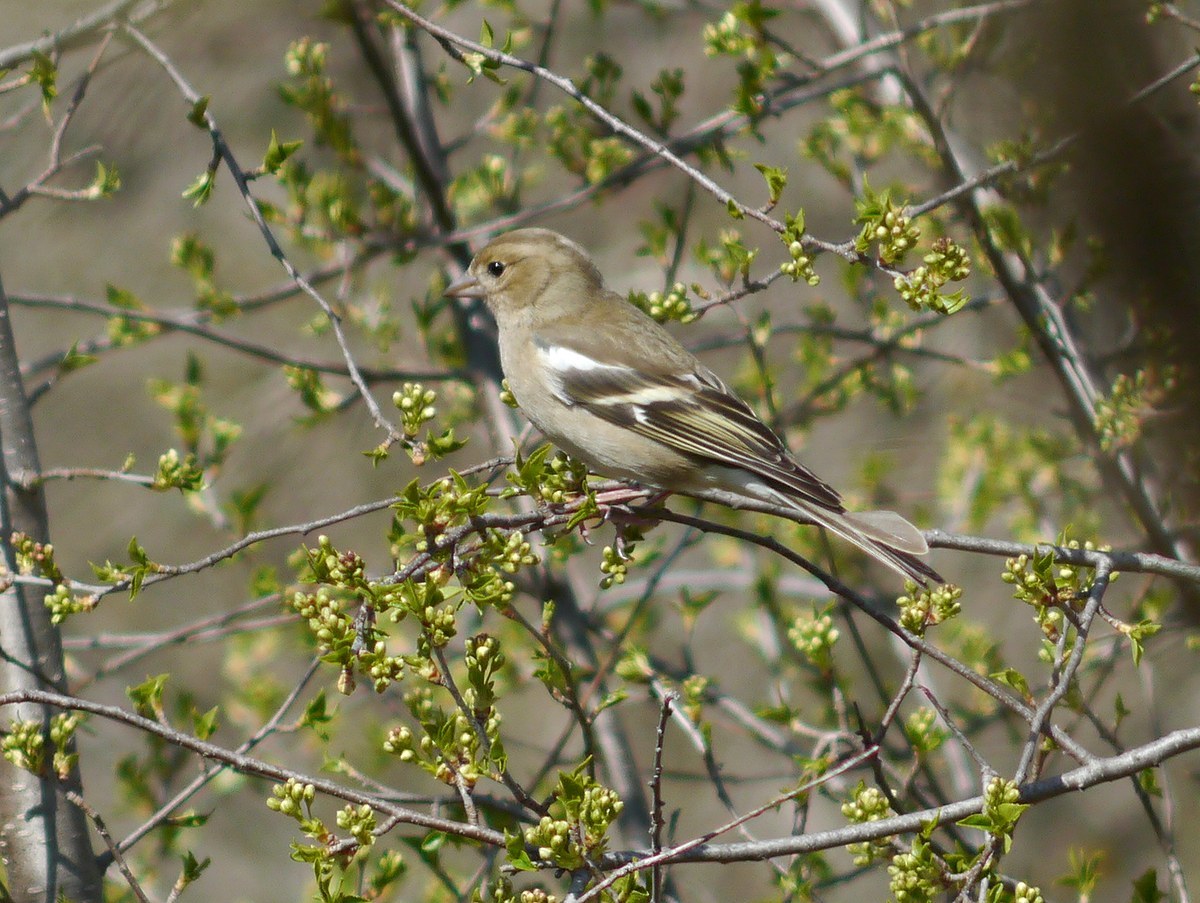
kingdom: Animalia
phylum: Chordata
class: Aves
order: Passeriformes
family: Fringillidae
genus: Fringilla
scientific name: Fringilla coelebs
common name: Common chaffinch
